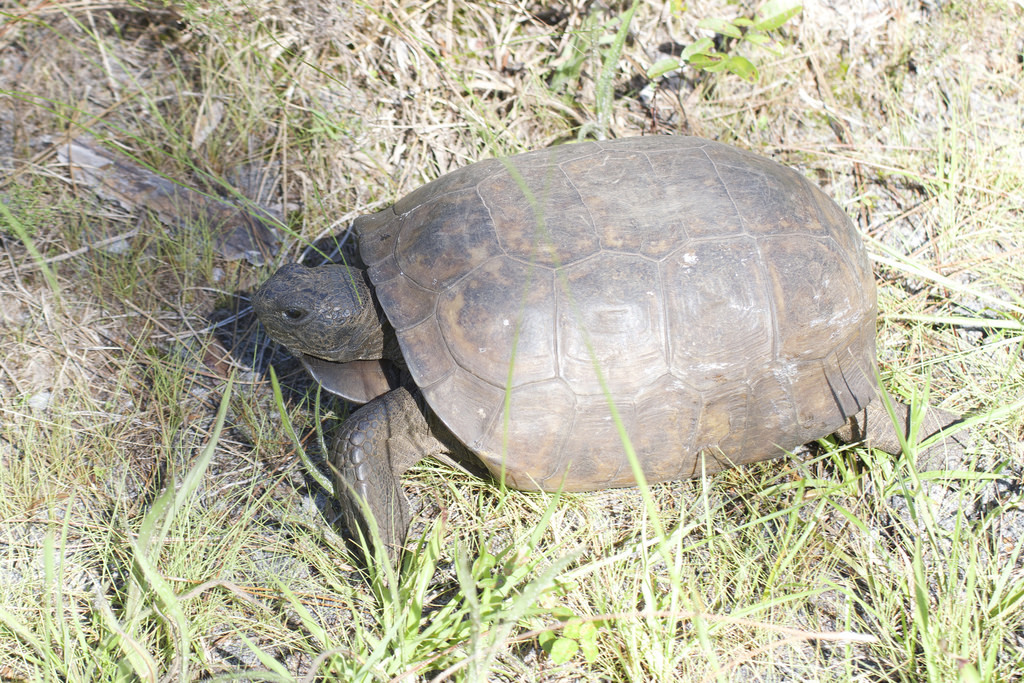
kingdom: Animalia
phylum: Chordata
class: Testudines
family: Testudinidae
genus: Gopherus
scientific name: Gopherus polyphemus
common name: Florida gopher tortoise
